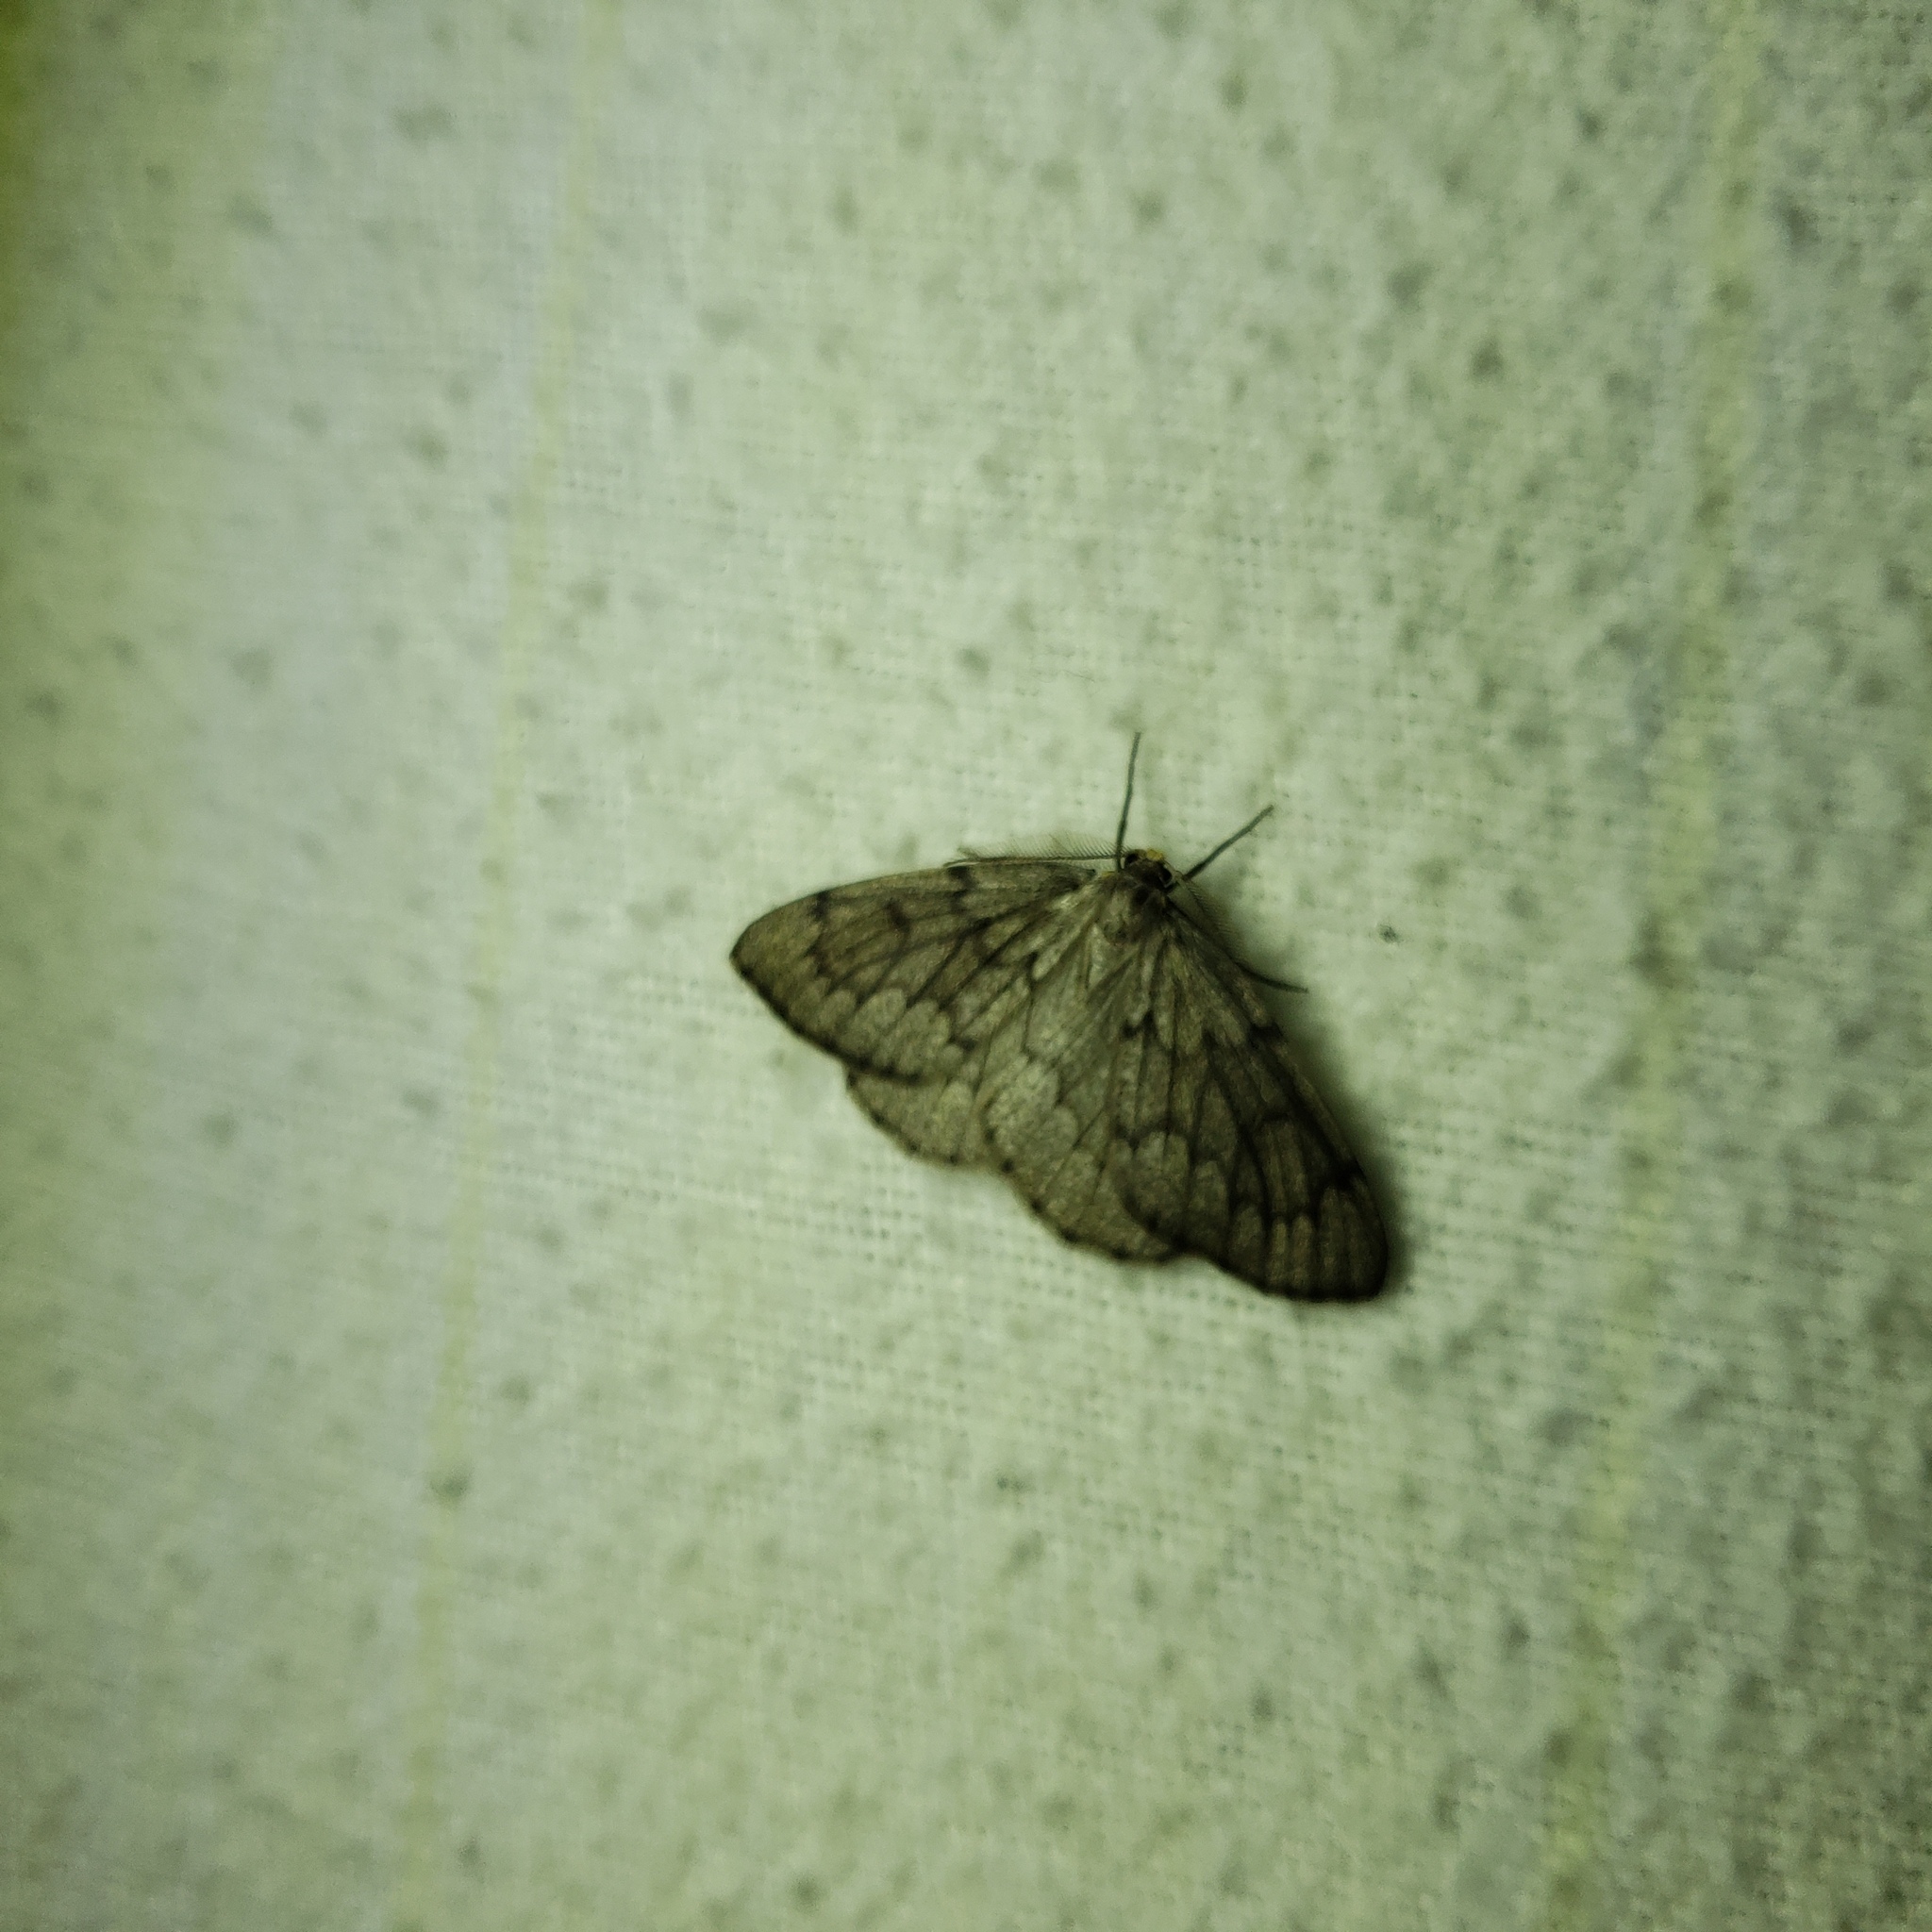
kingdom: Animalia
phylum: Arthropoda
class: Insecta
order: Lepidoptera
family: Geometridae
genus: Nepytia
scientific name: Nepytia canosaria
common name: False hemlock looper
